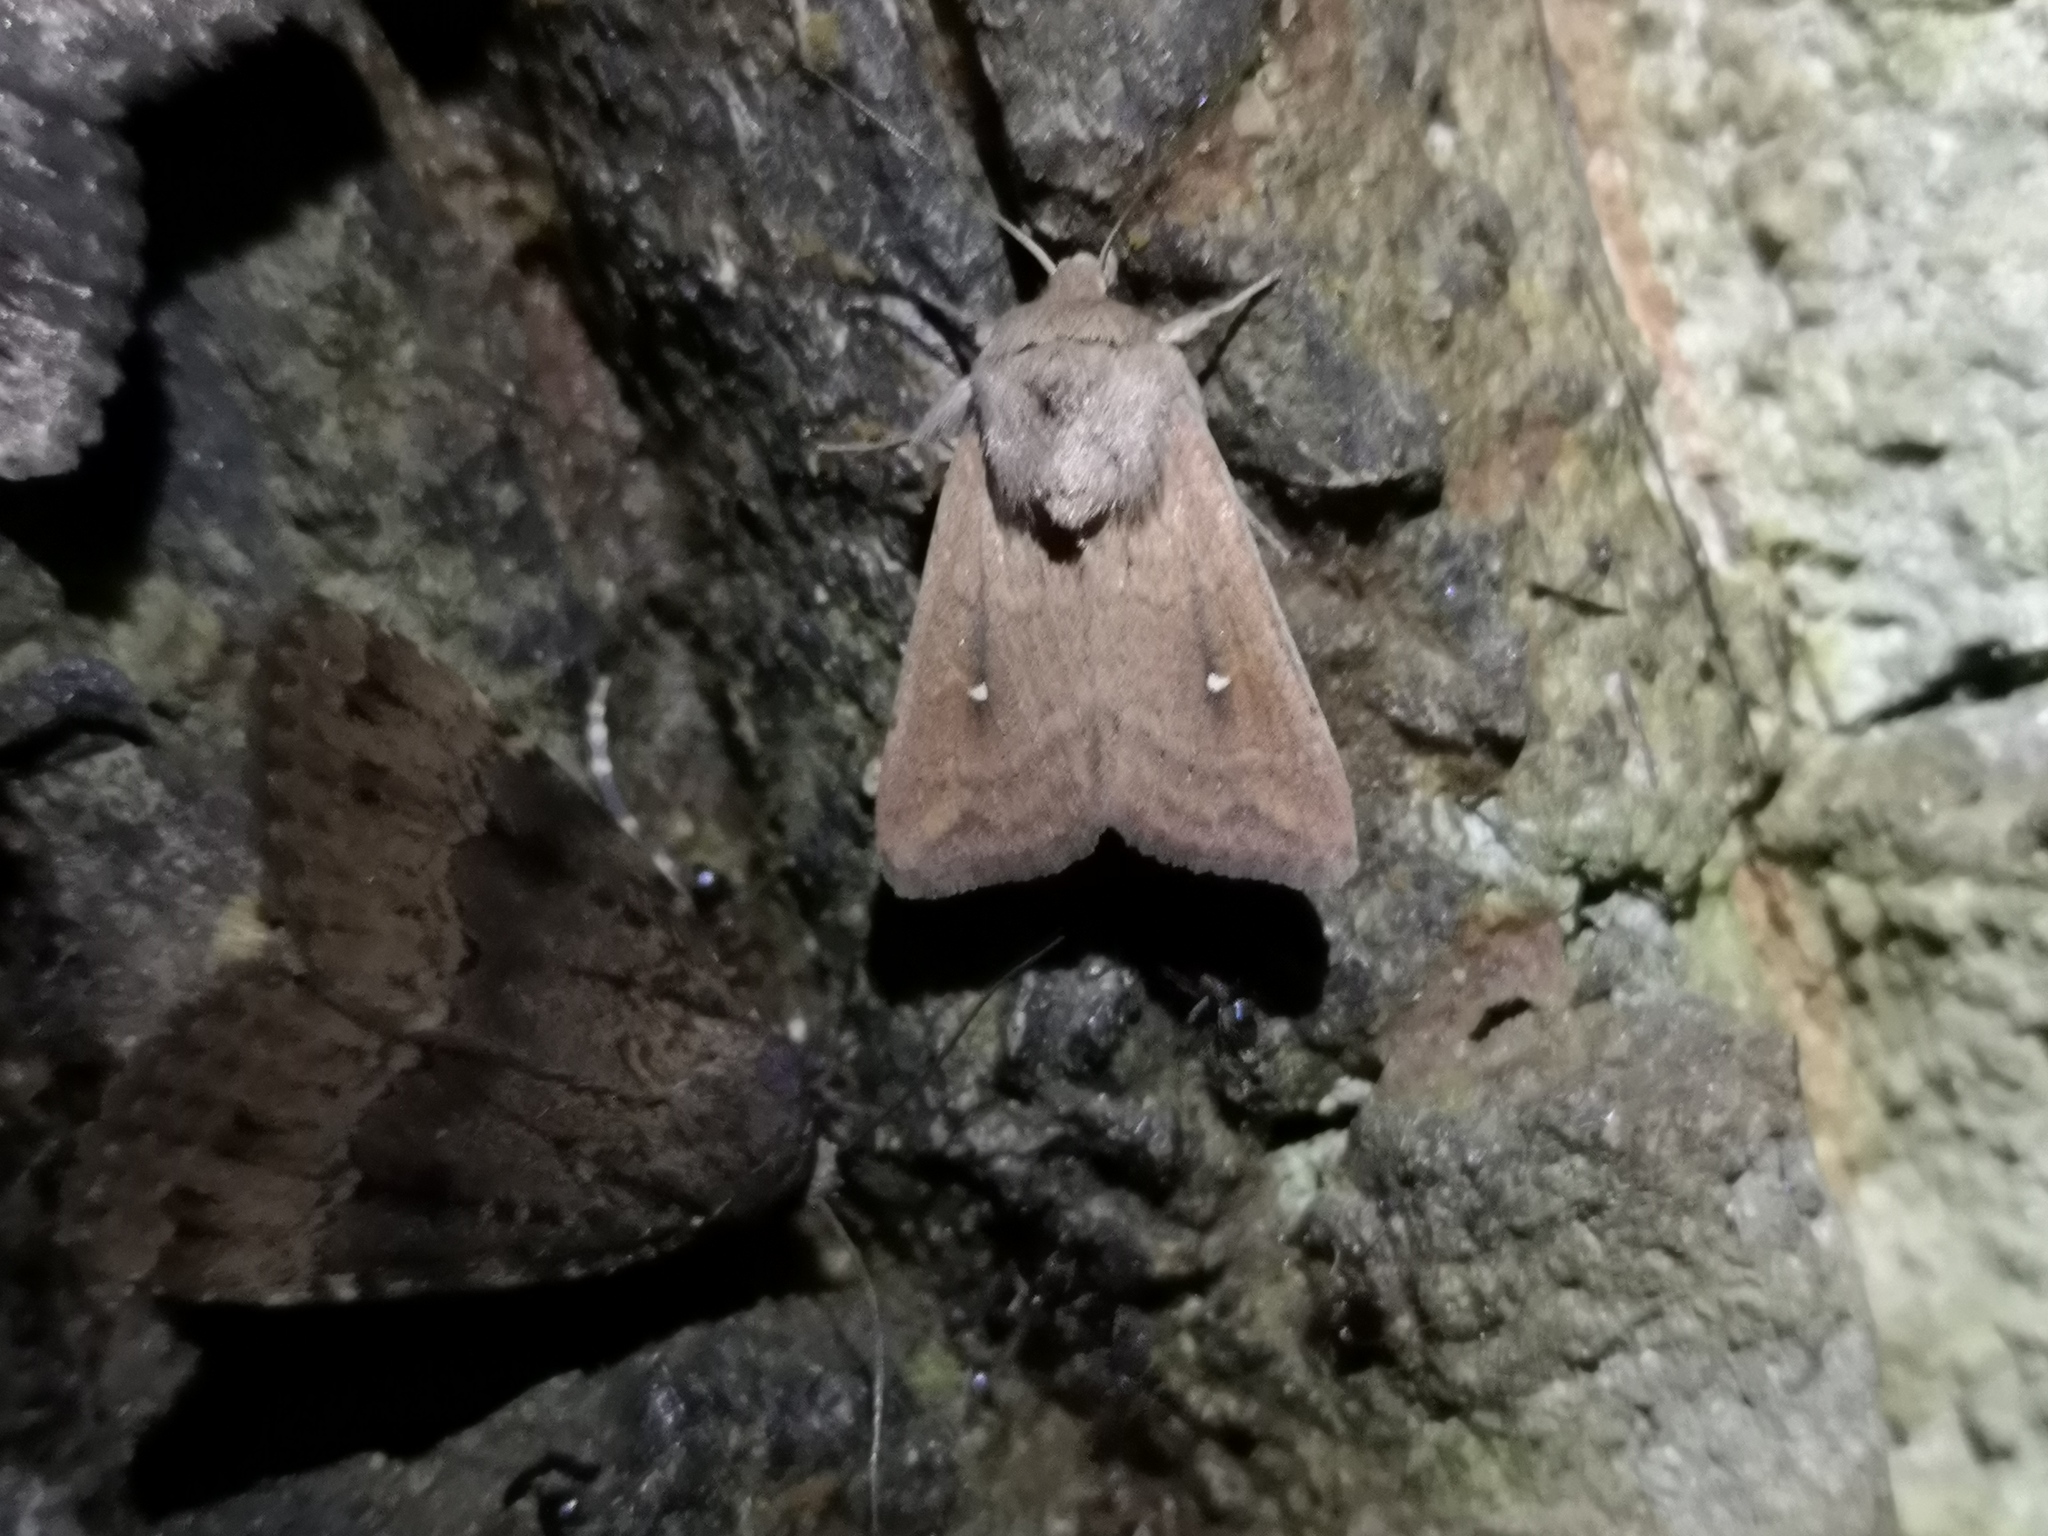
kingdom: Animalia
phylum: Arthropoda
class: Insecta
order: Lepidoptera
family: Noctuidae
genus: Mythimna
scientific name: Mythimna albipuncta
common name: White-point
